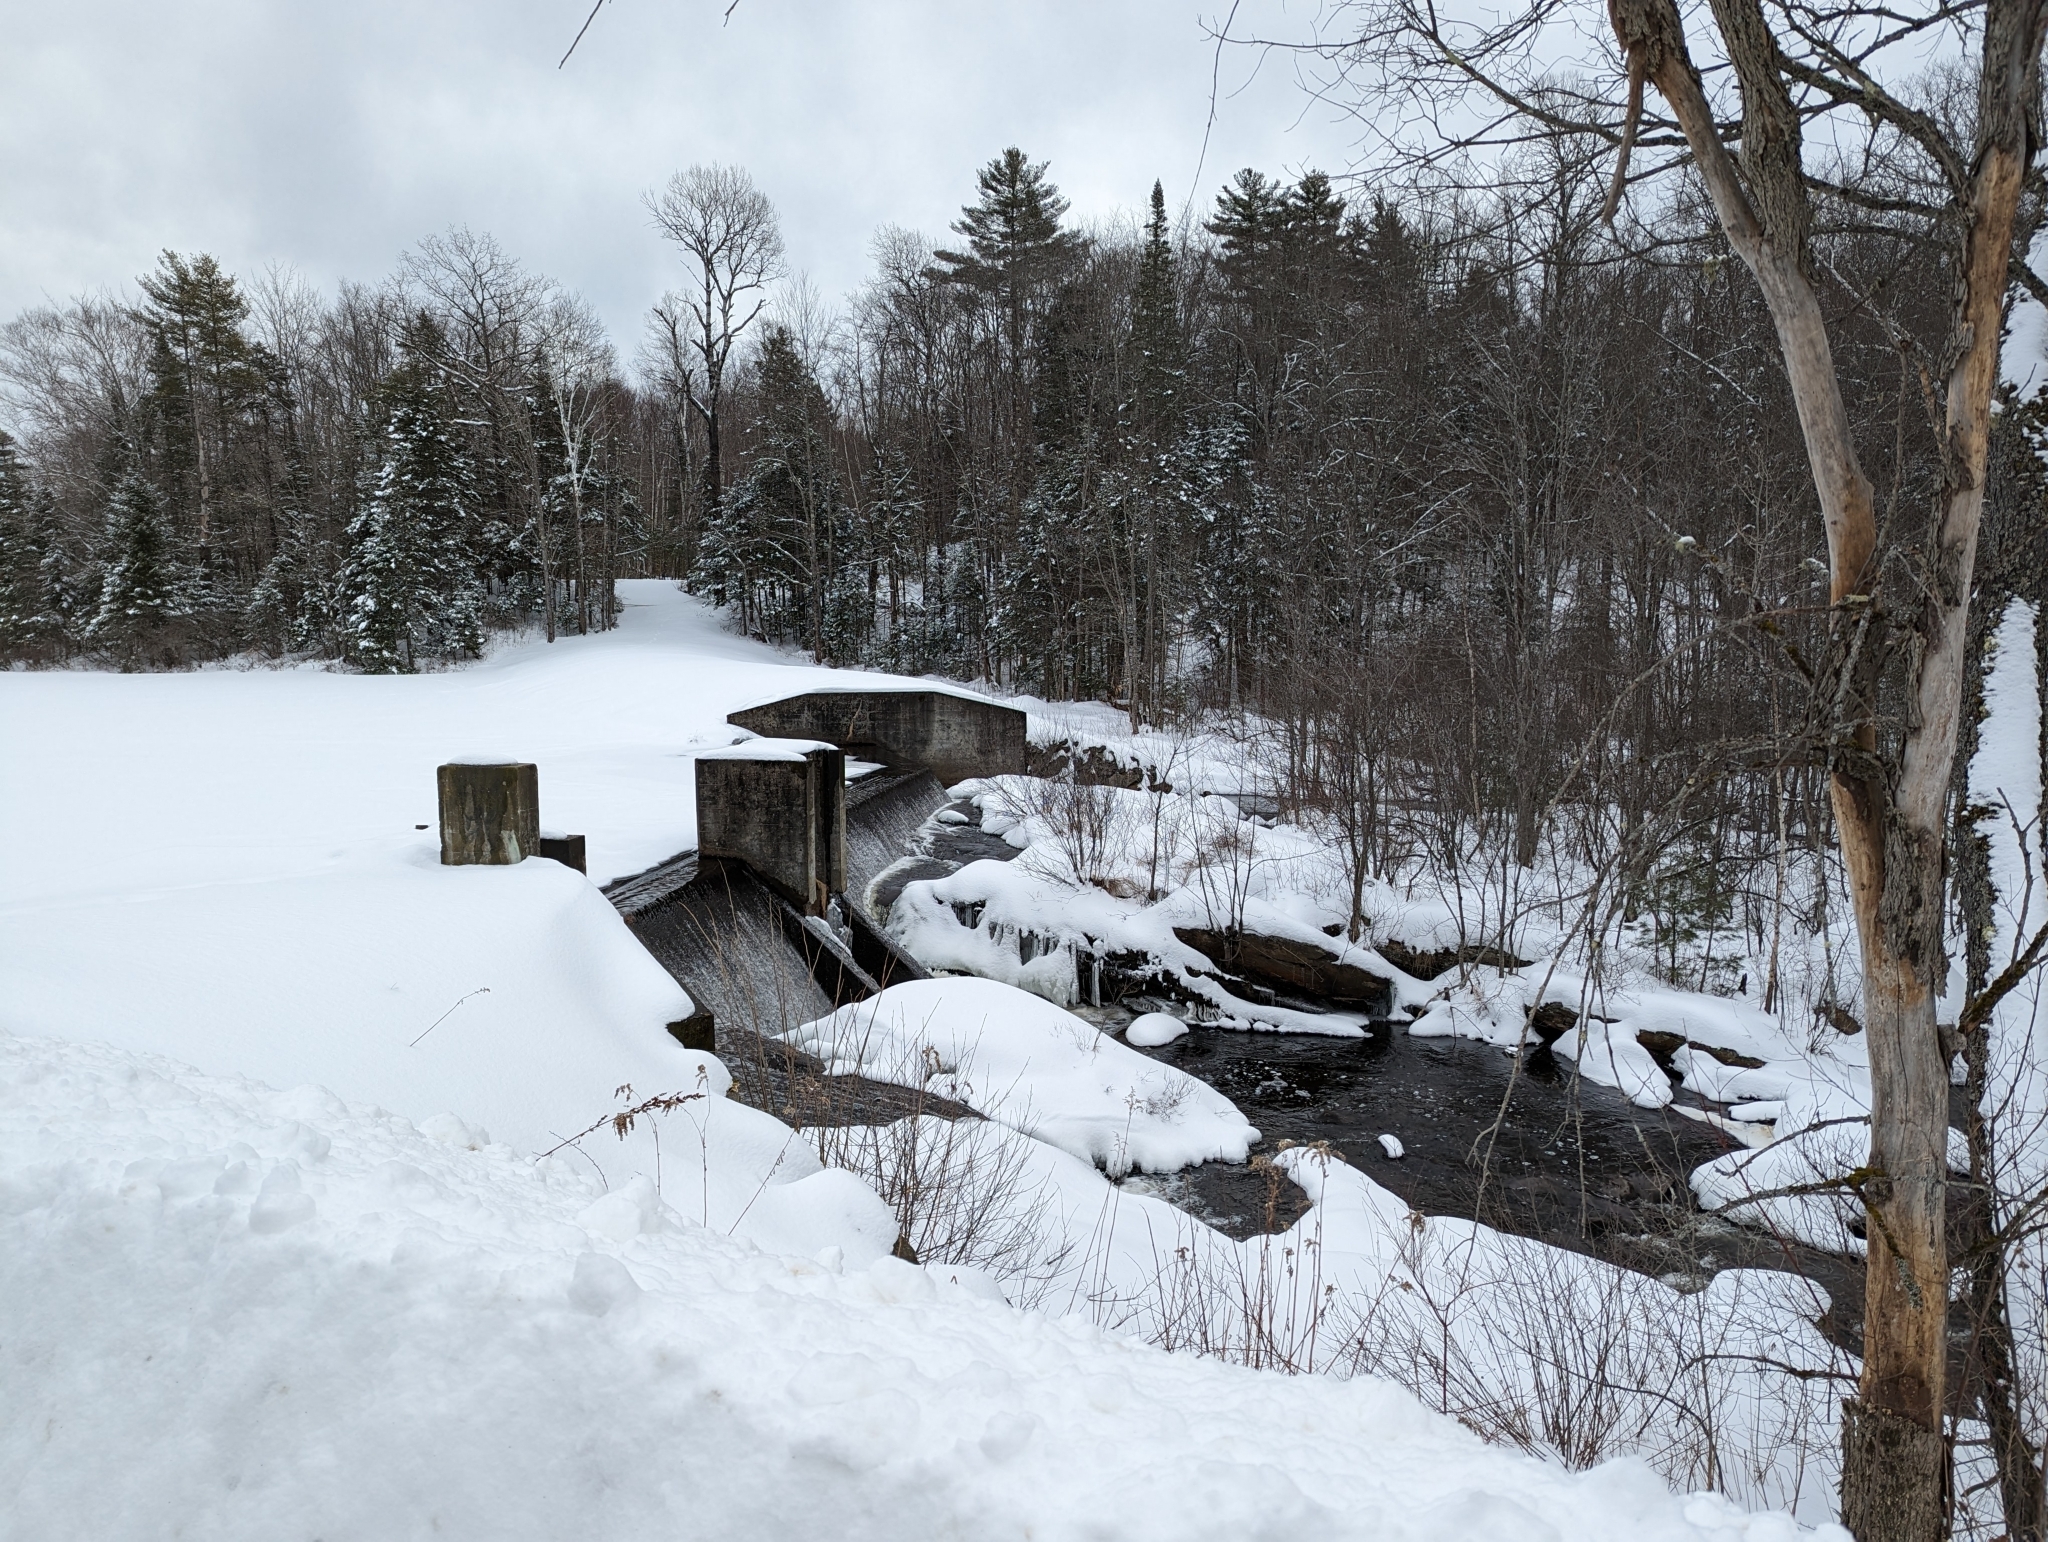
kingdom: Plantae
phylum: Tracheophyta
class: Pinopsida
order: Pinales
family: Pinaceae
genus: Pinus
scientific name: Pinus strobus
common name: Weymouth pine
